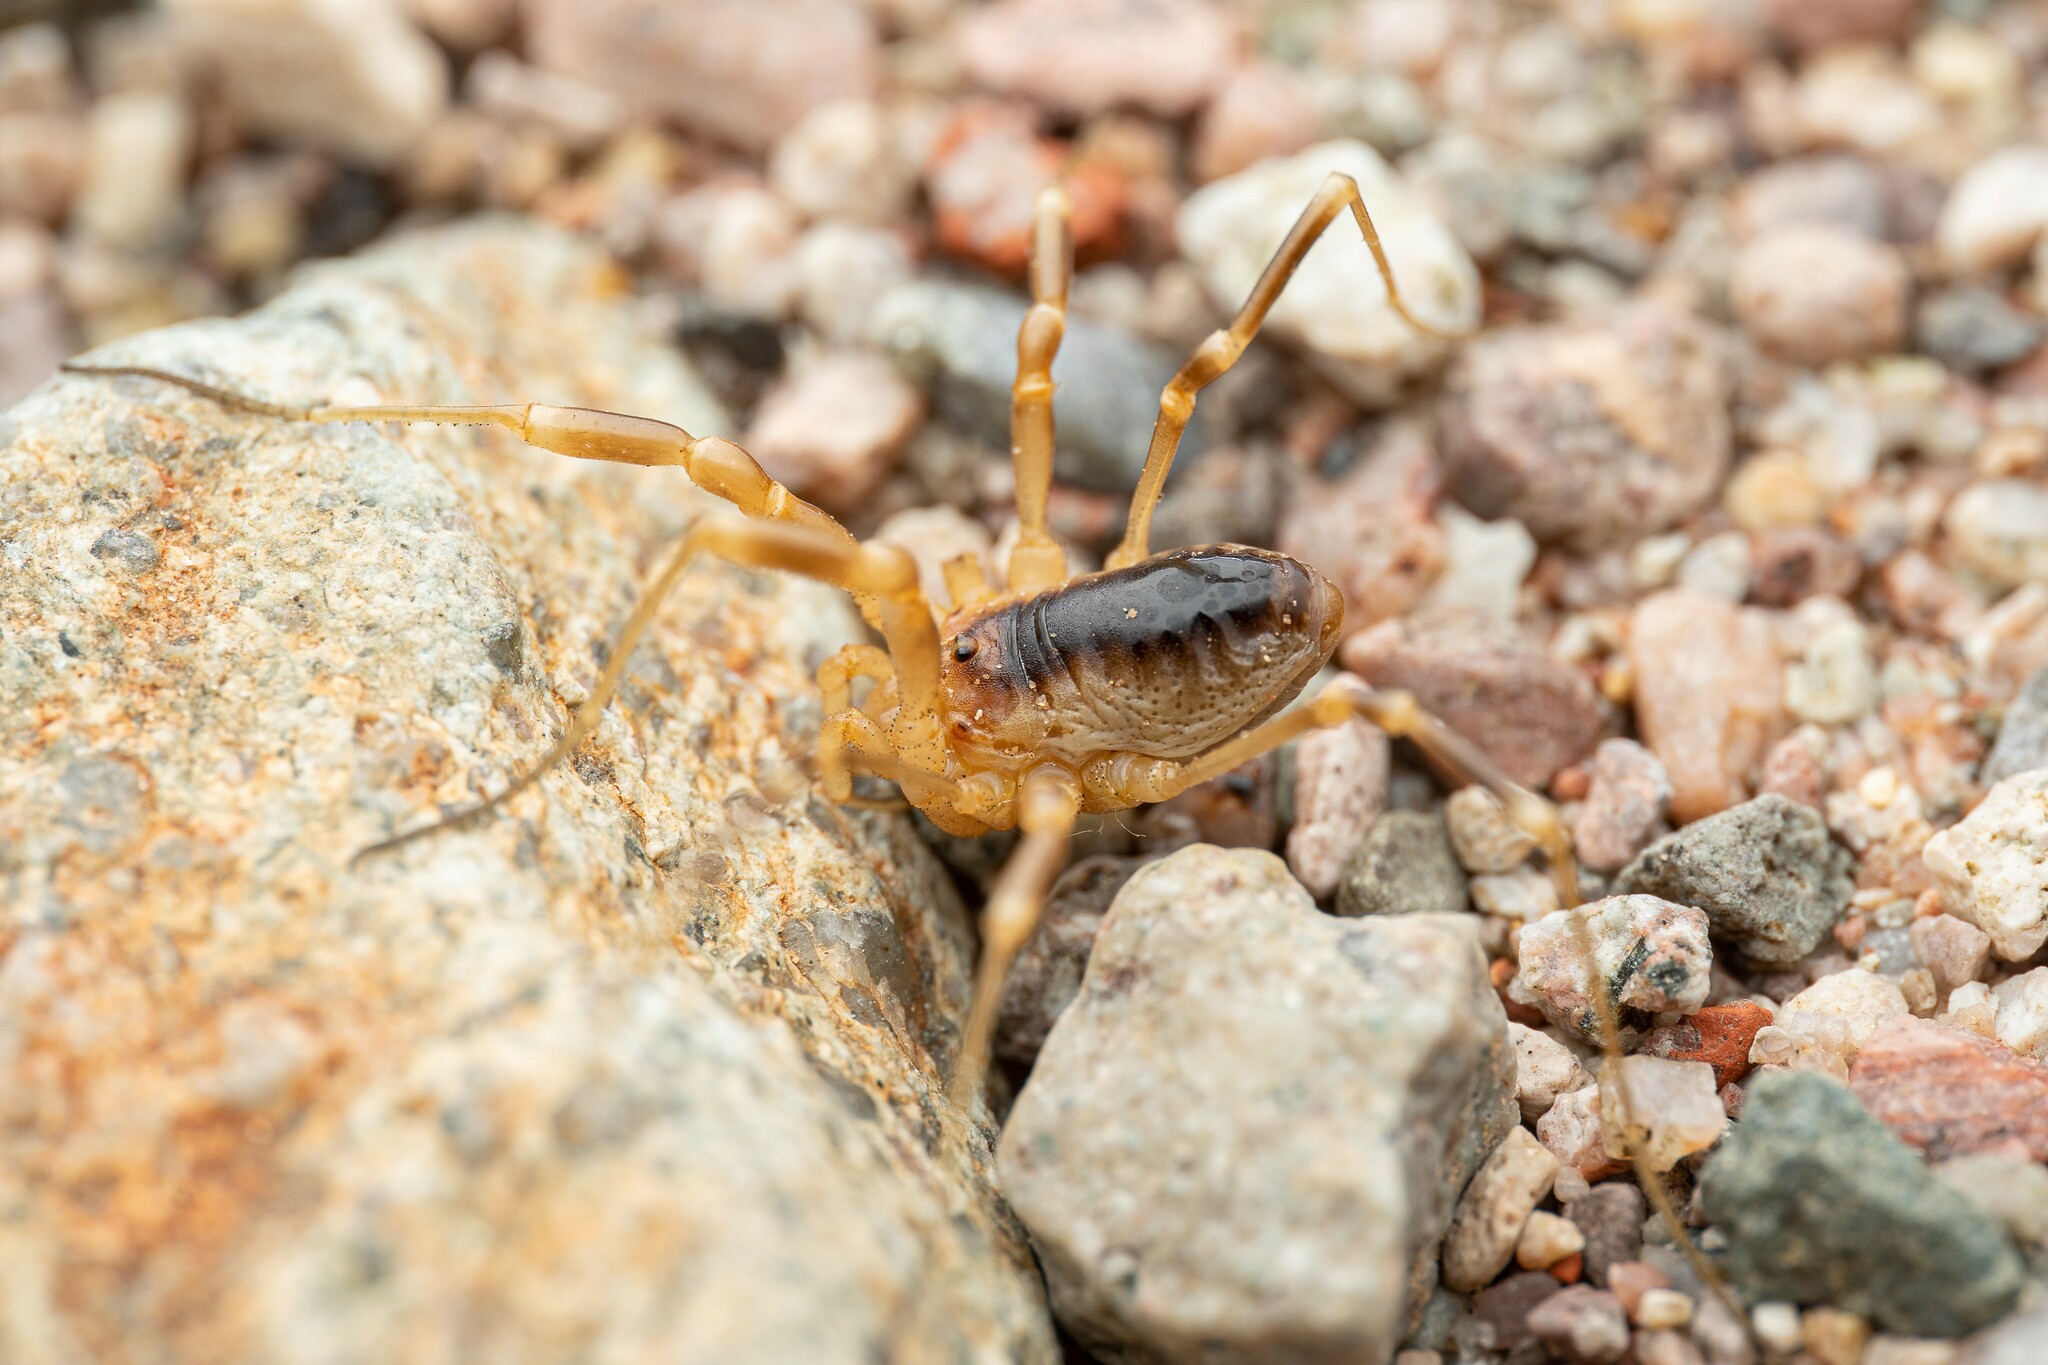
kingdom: Animalia
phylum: Arthropoda
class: Arachnida
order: Opiliones
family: Globipedidae
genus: Eurybunus
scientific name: Eurybunus
